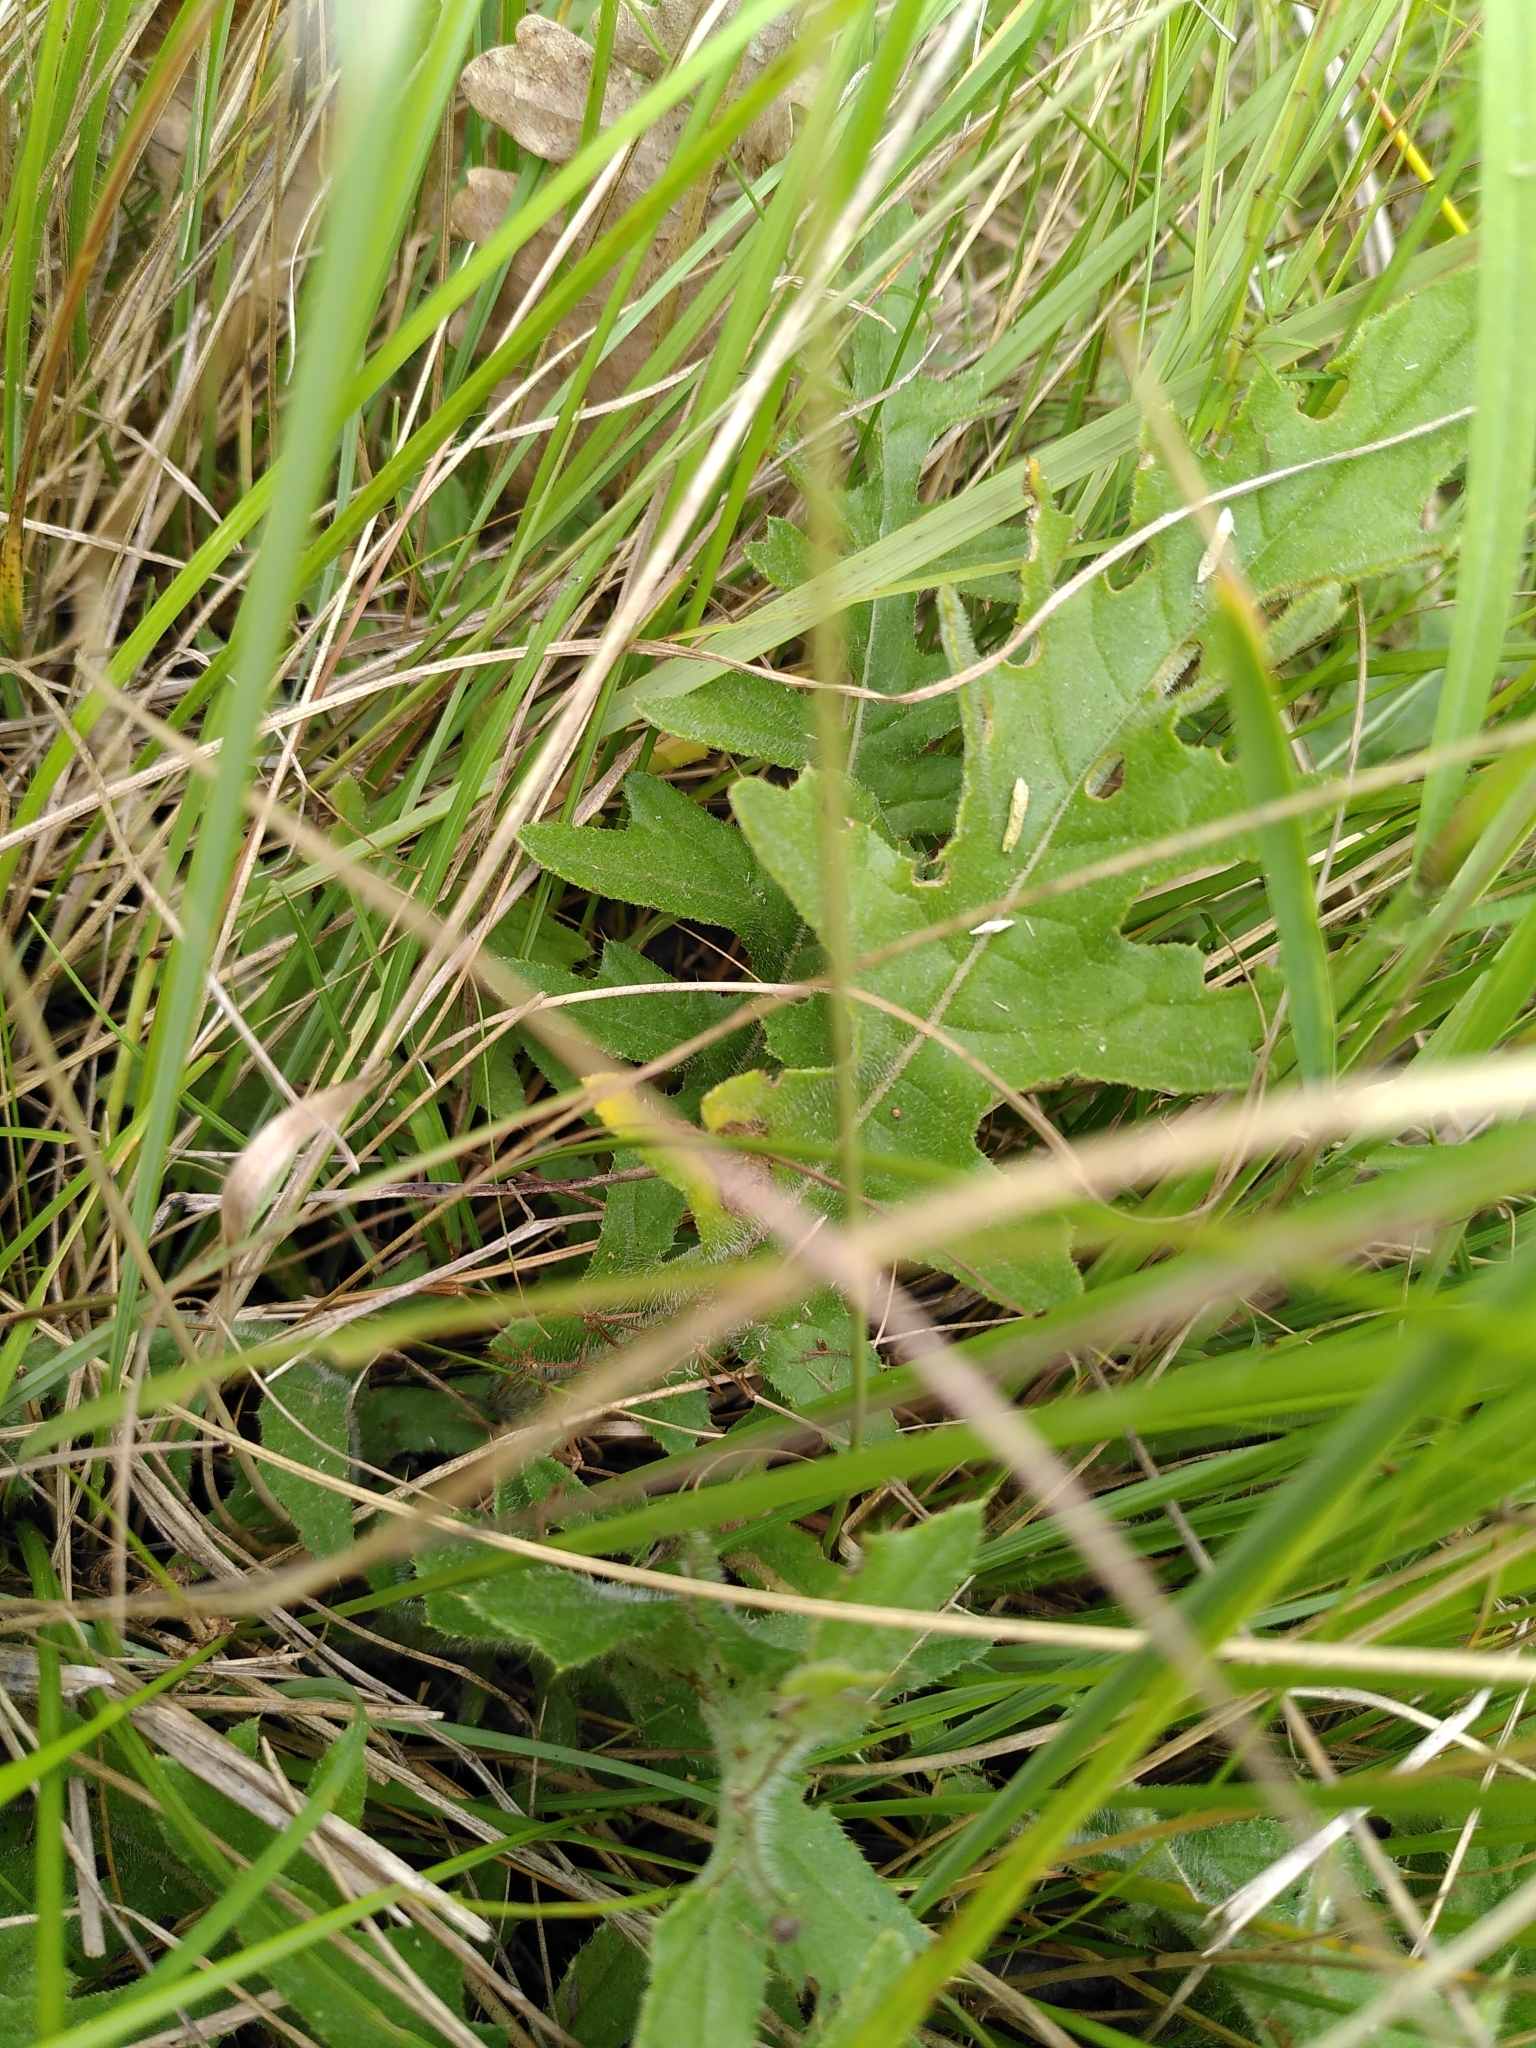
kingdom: Plantae
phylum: Tracheophyta
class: Magnoliopsida
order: Asterales
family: Asteraceae
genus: Cirsium
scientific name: Cirsium tuberosum
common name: Tuberous thistle
